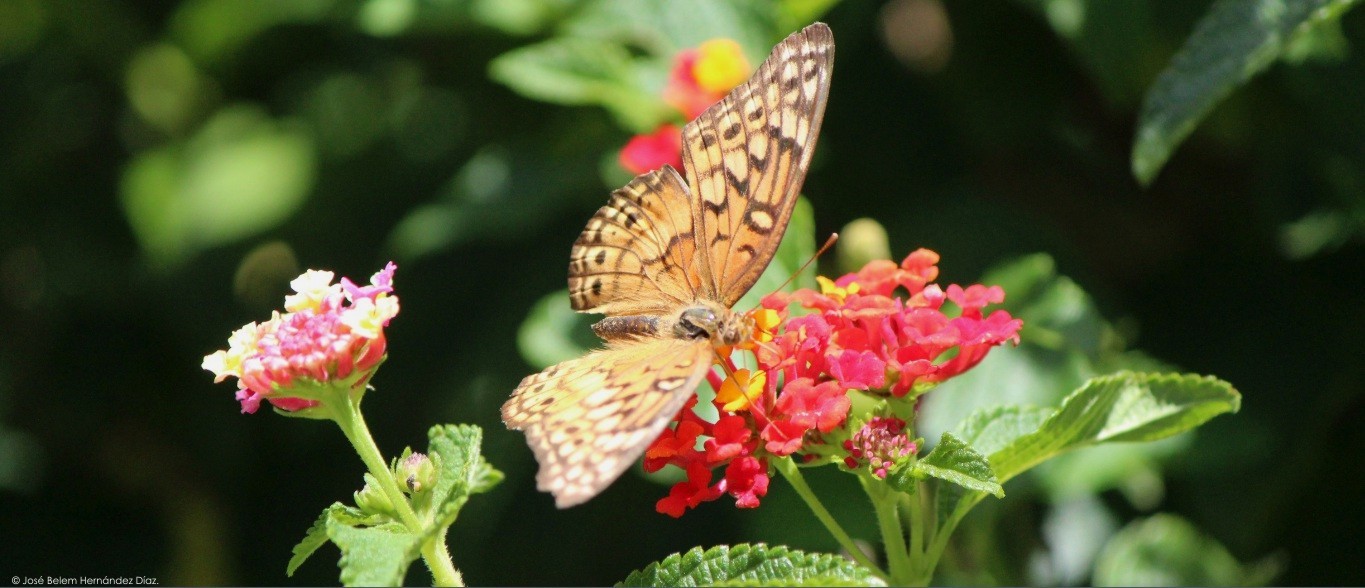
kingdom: Animalia
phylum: Arthropoda
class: Insecta
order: Lepidoptera
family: Nymphalidae
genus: Euptoieta
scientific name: Euptoieta claudia
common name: Variegated fritillary
